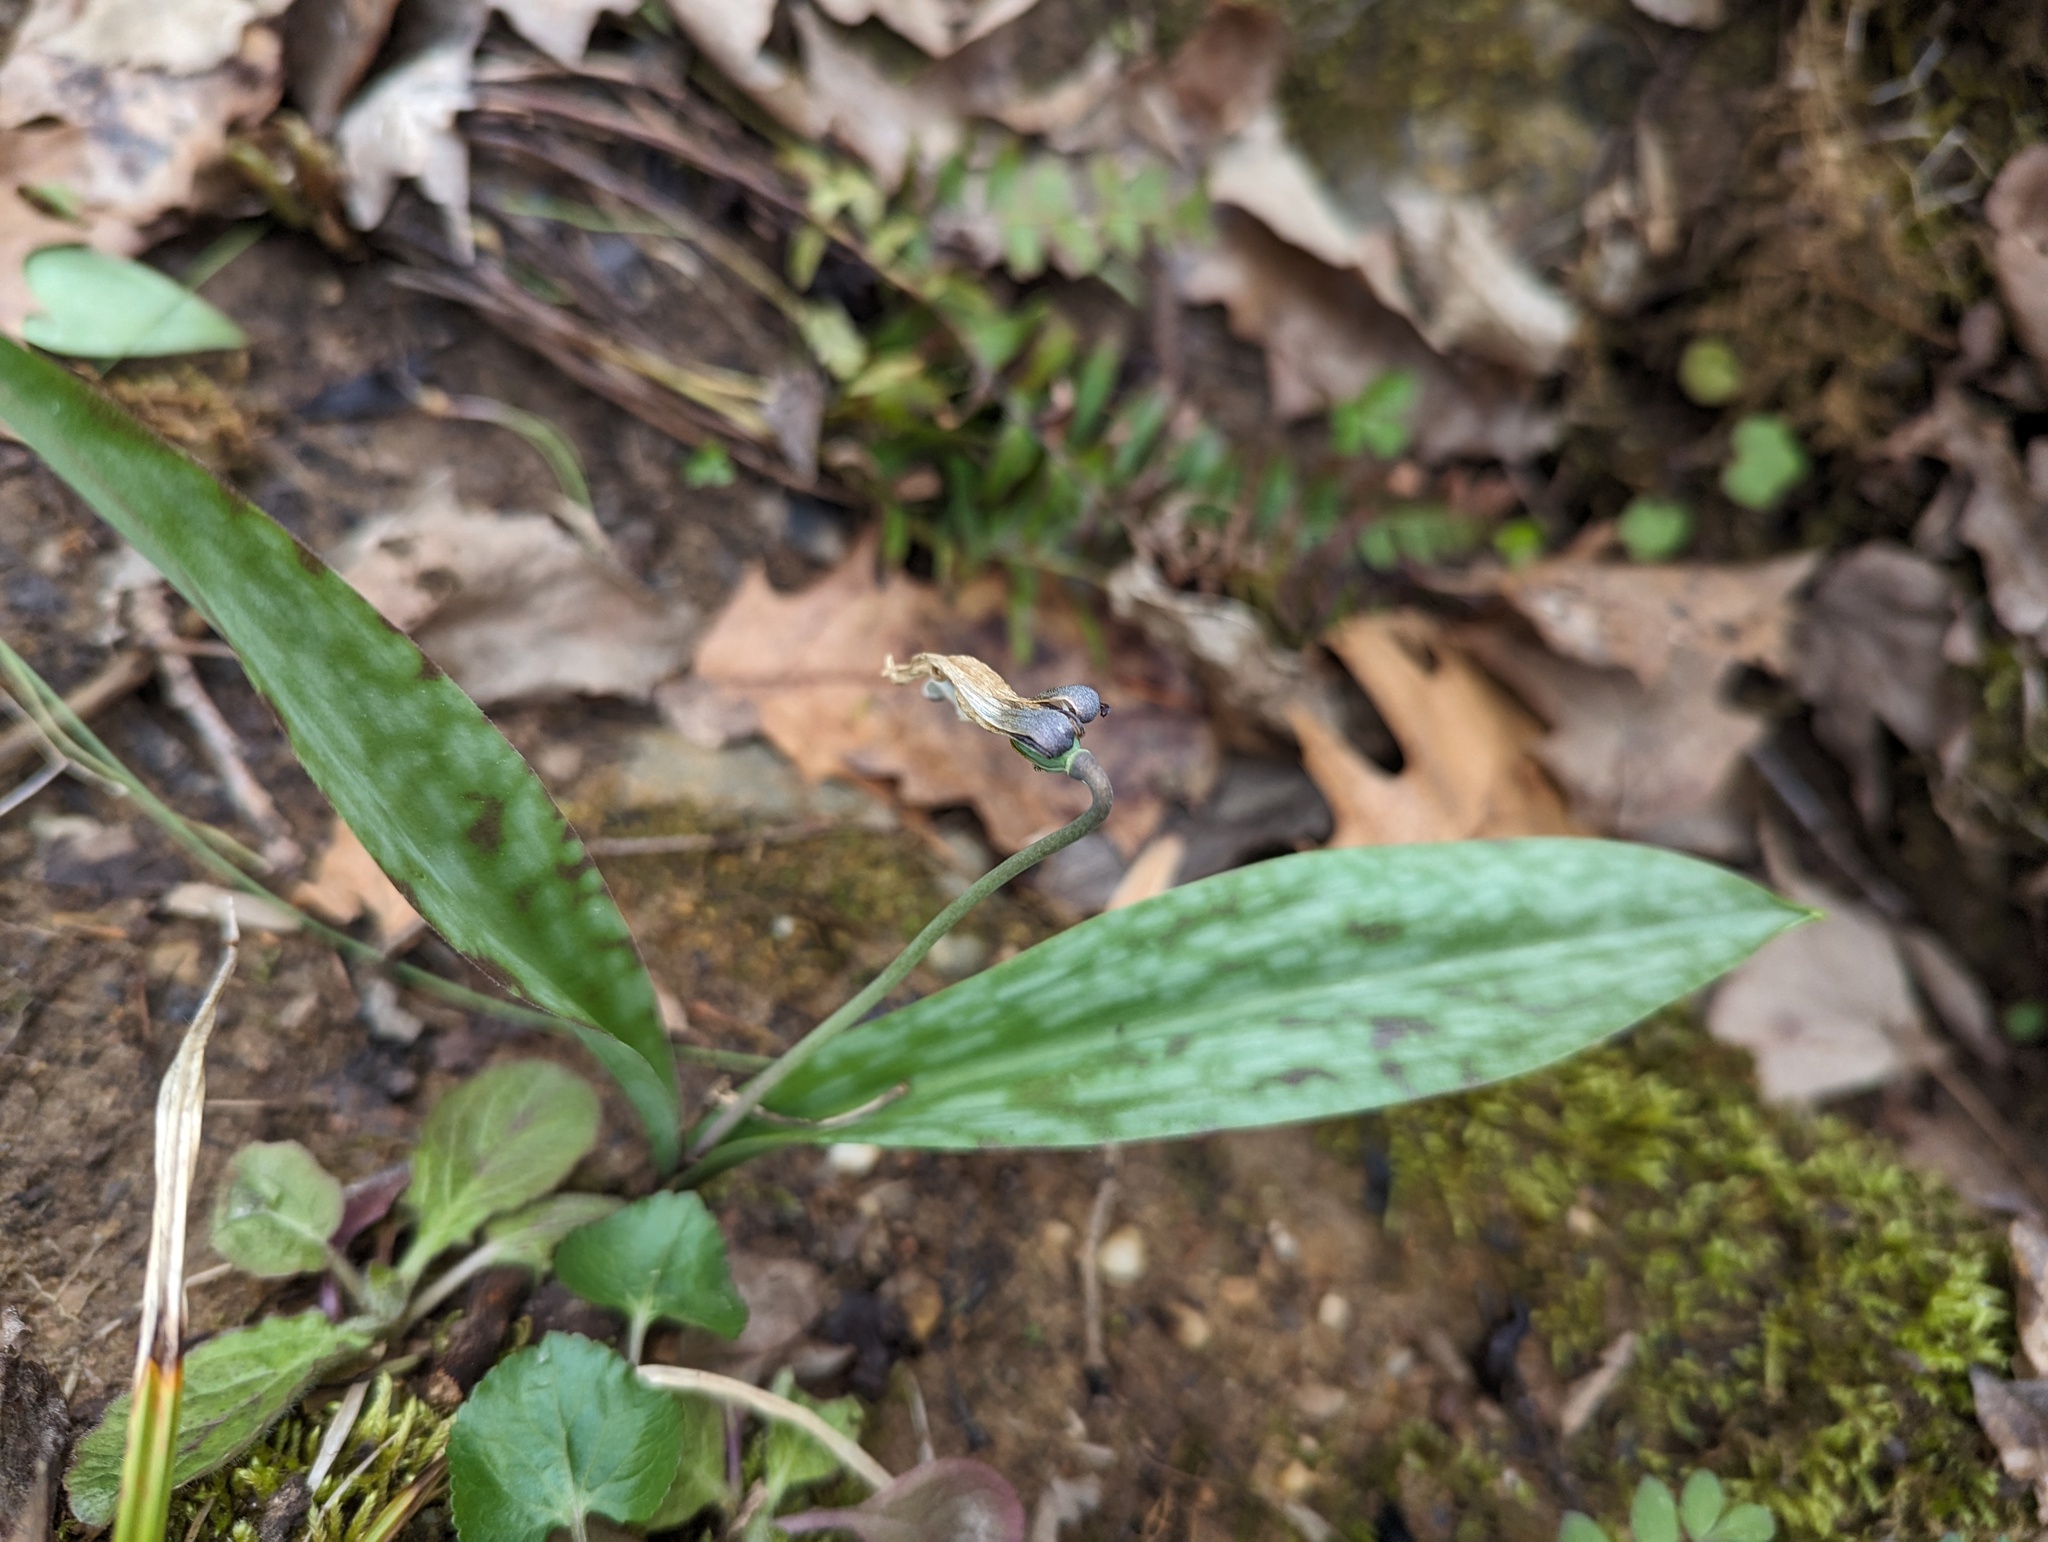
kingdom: Plantae
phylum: Tracheophyta
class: Liliopsida
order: Liliales
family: Liliaceae
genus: Erythronium
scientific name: Erythronium albidum
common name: White trout-lily
